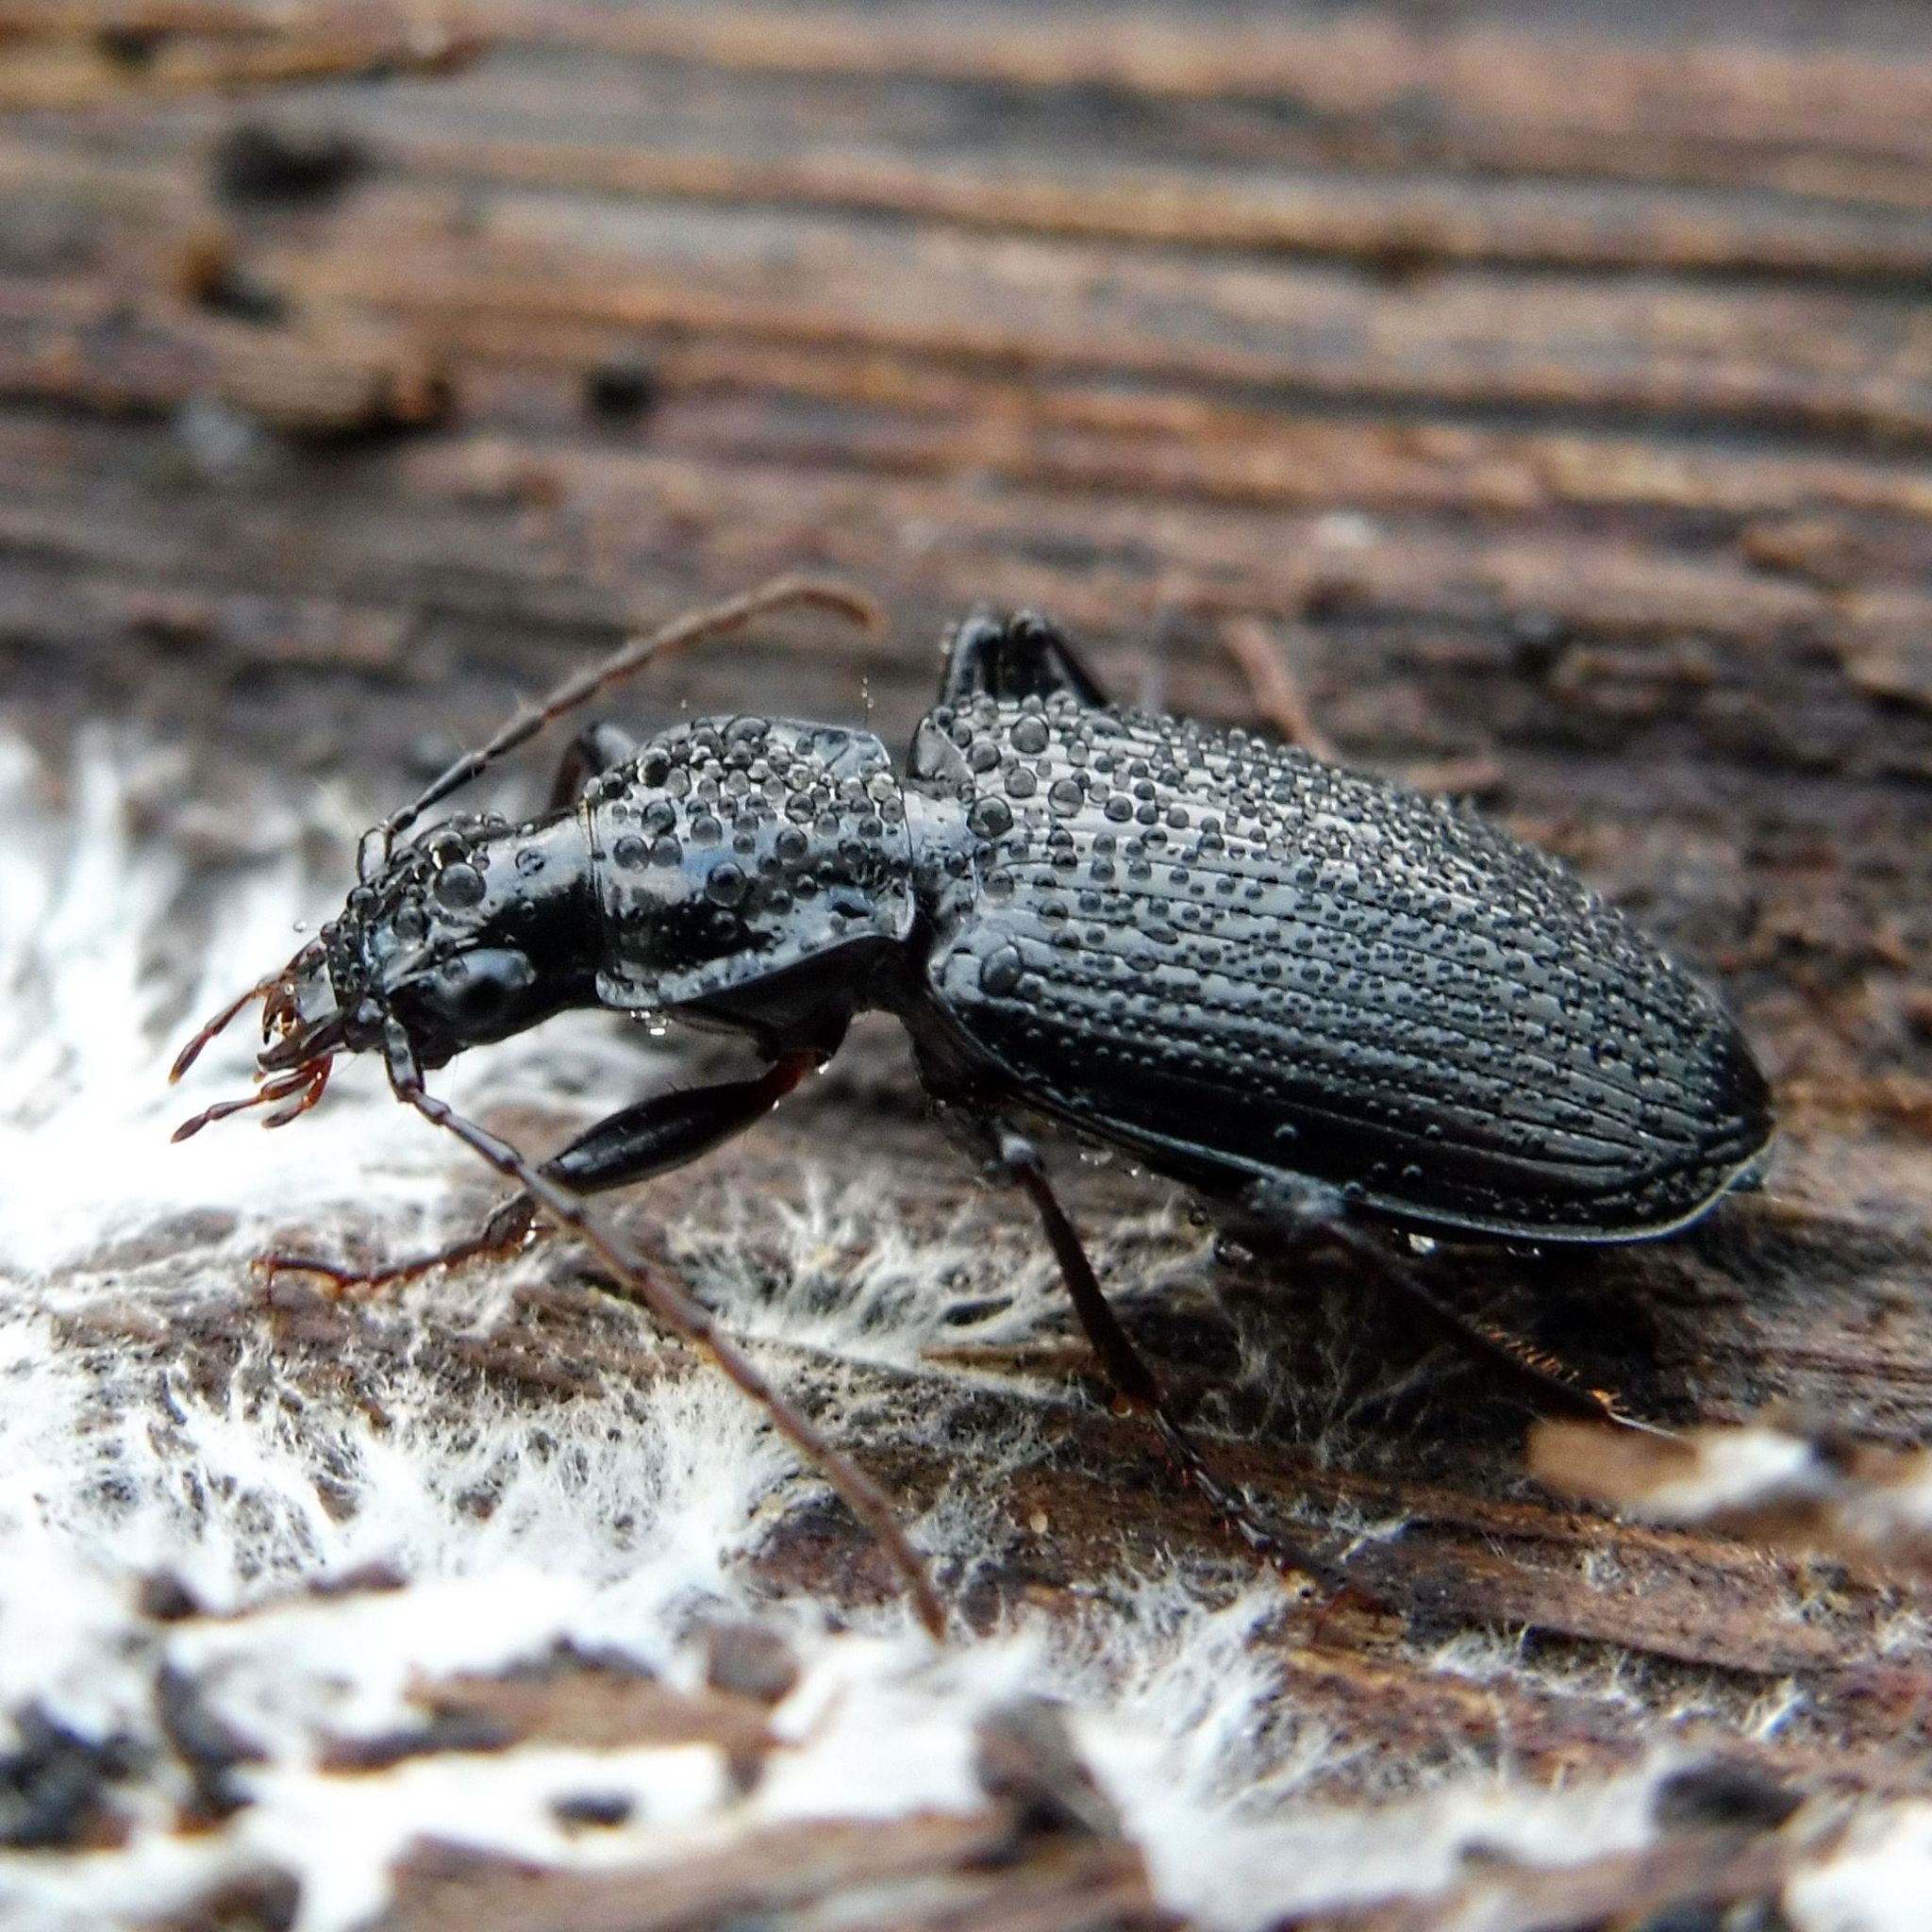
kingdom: Animalia
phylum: Arthropoda
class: Insecta
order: Coleoptera
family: Carabidae
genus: Platynus
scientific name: Platynus assimilis
